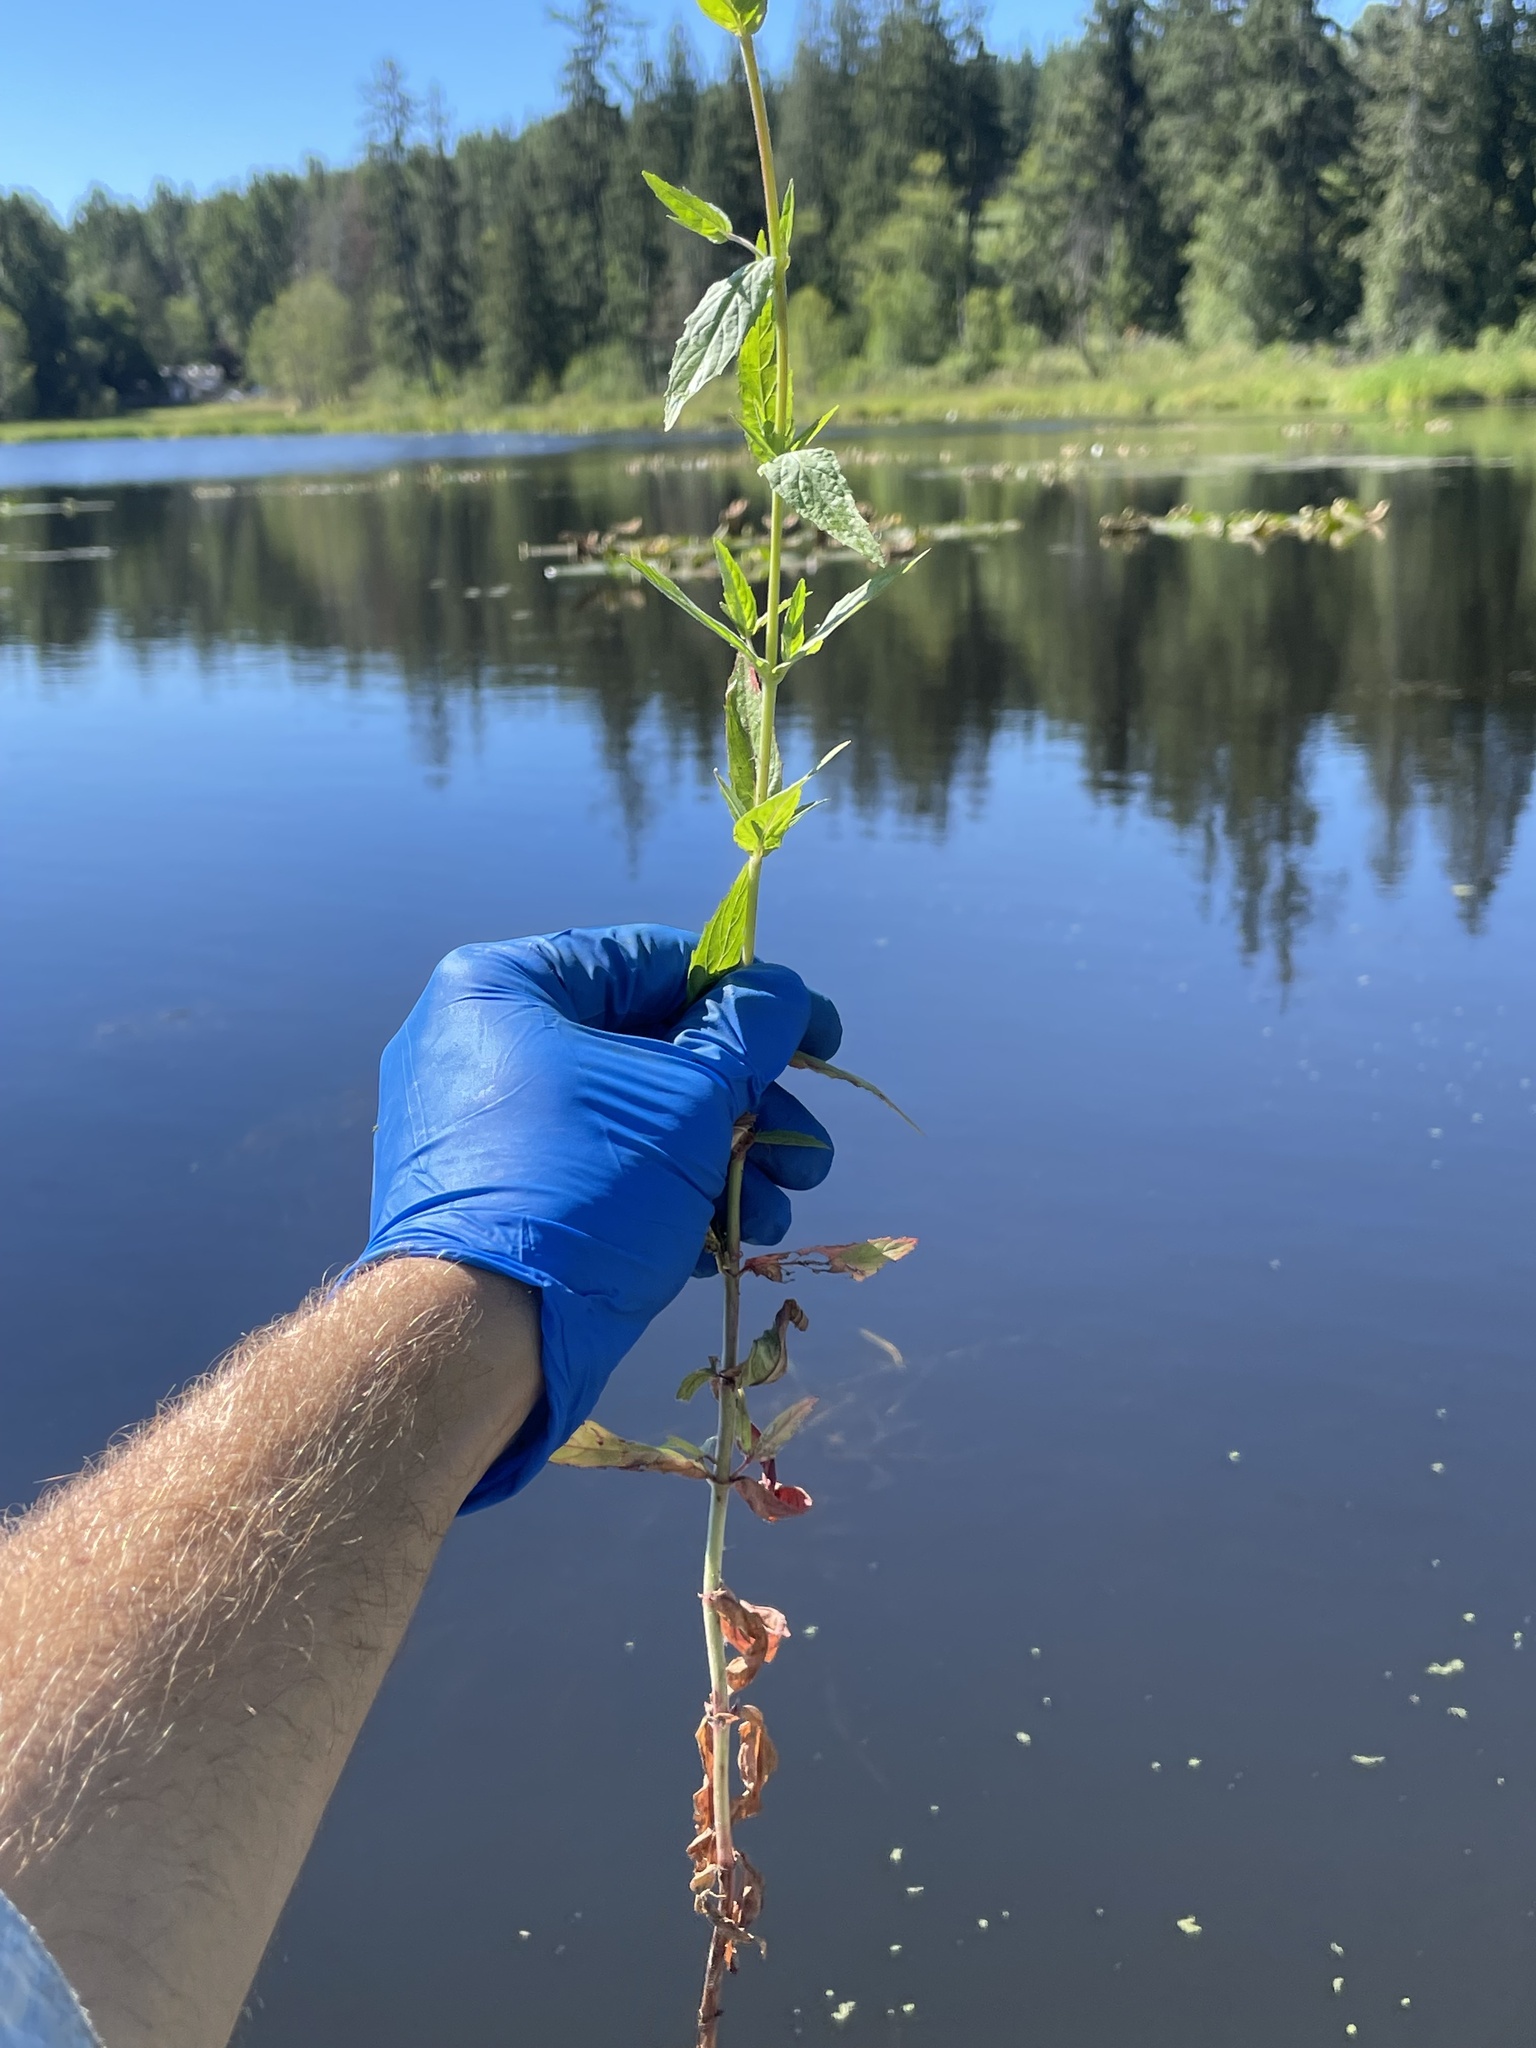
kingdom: Plantae
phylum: Tracheophyta
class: Magnoliopsida
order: Myrtales
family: Onagraceae
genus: Epilobium
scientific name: Epilobium ciliatum
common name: American willowherb
